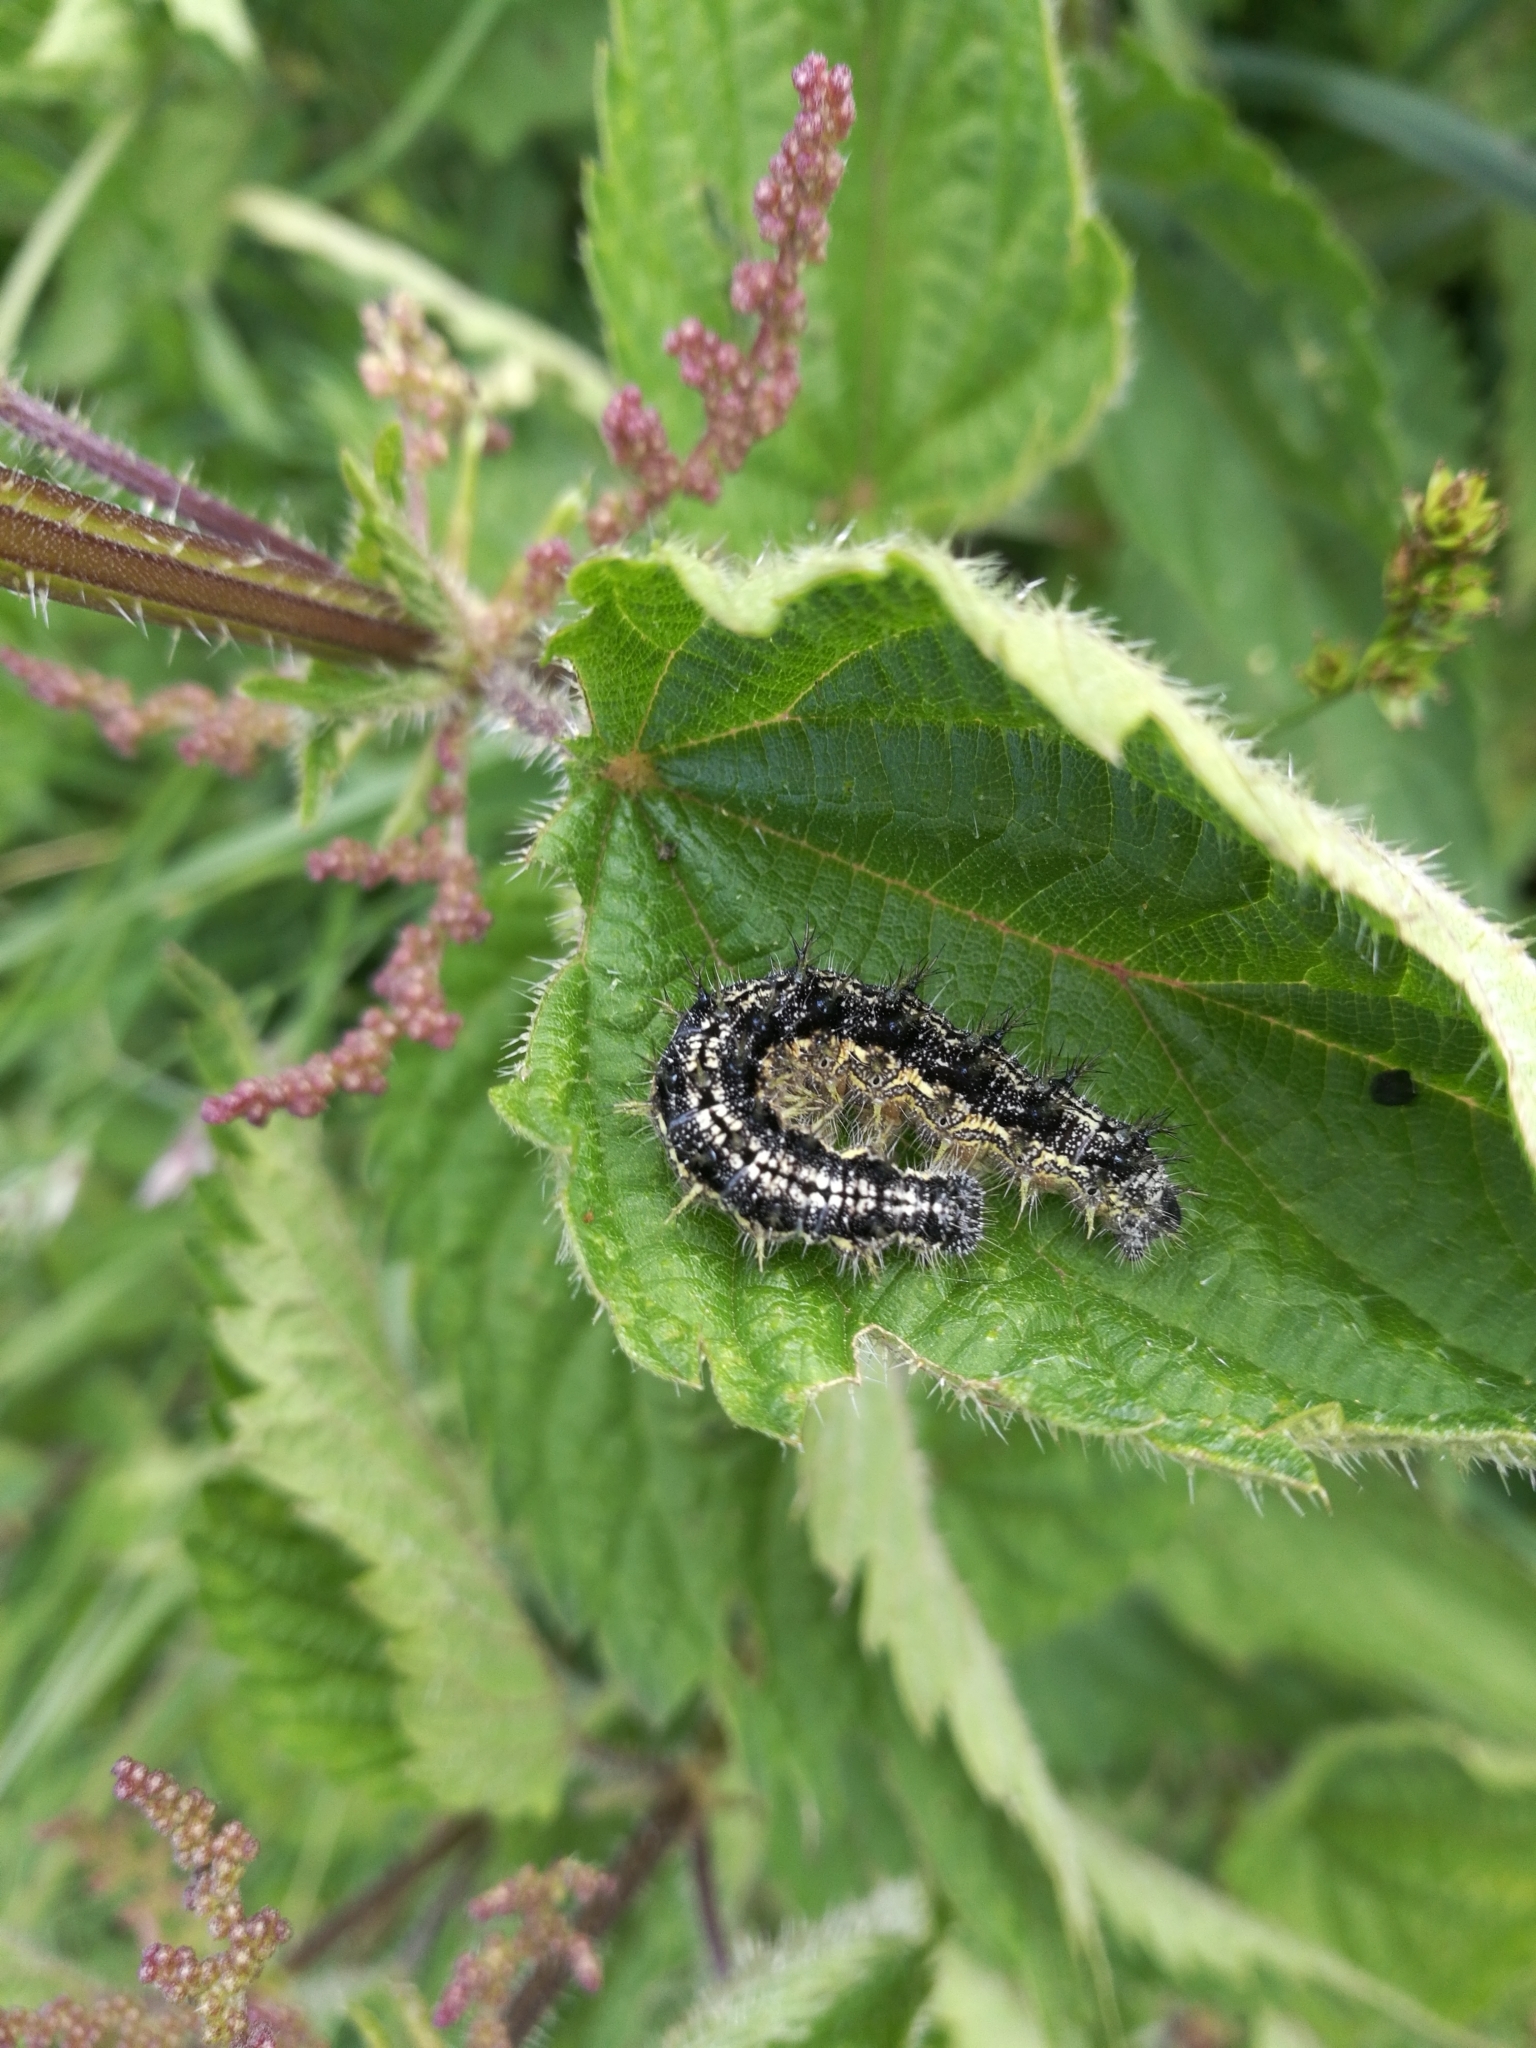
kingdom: Animalia
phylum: Arthropoda
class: Insecta
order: Lepidoptera
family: Nymphalidae
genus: Aglais
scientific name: Aglais urticae
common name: Small tortoiseshell
